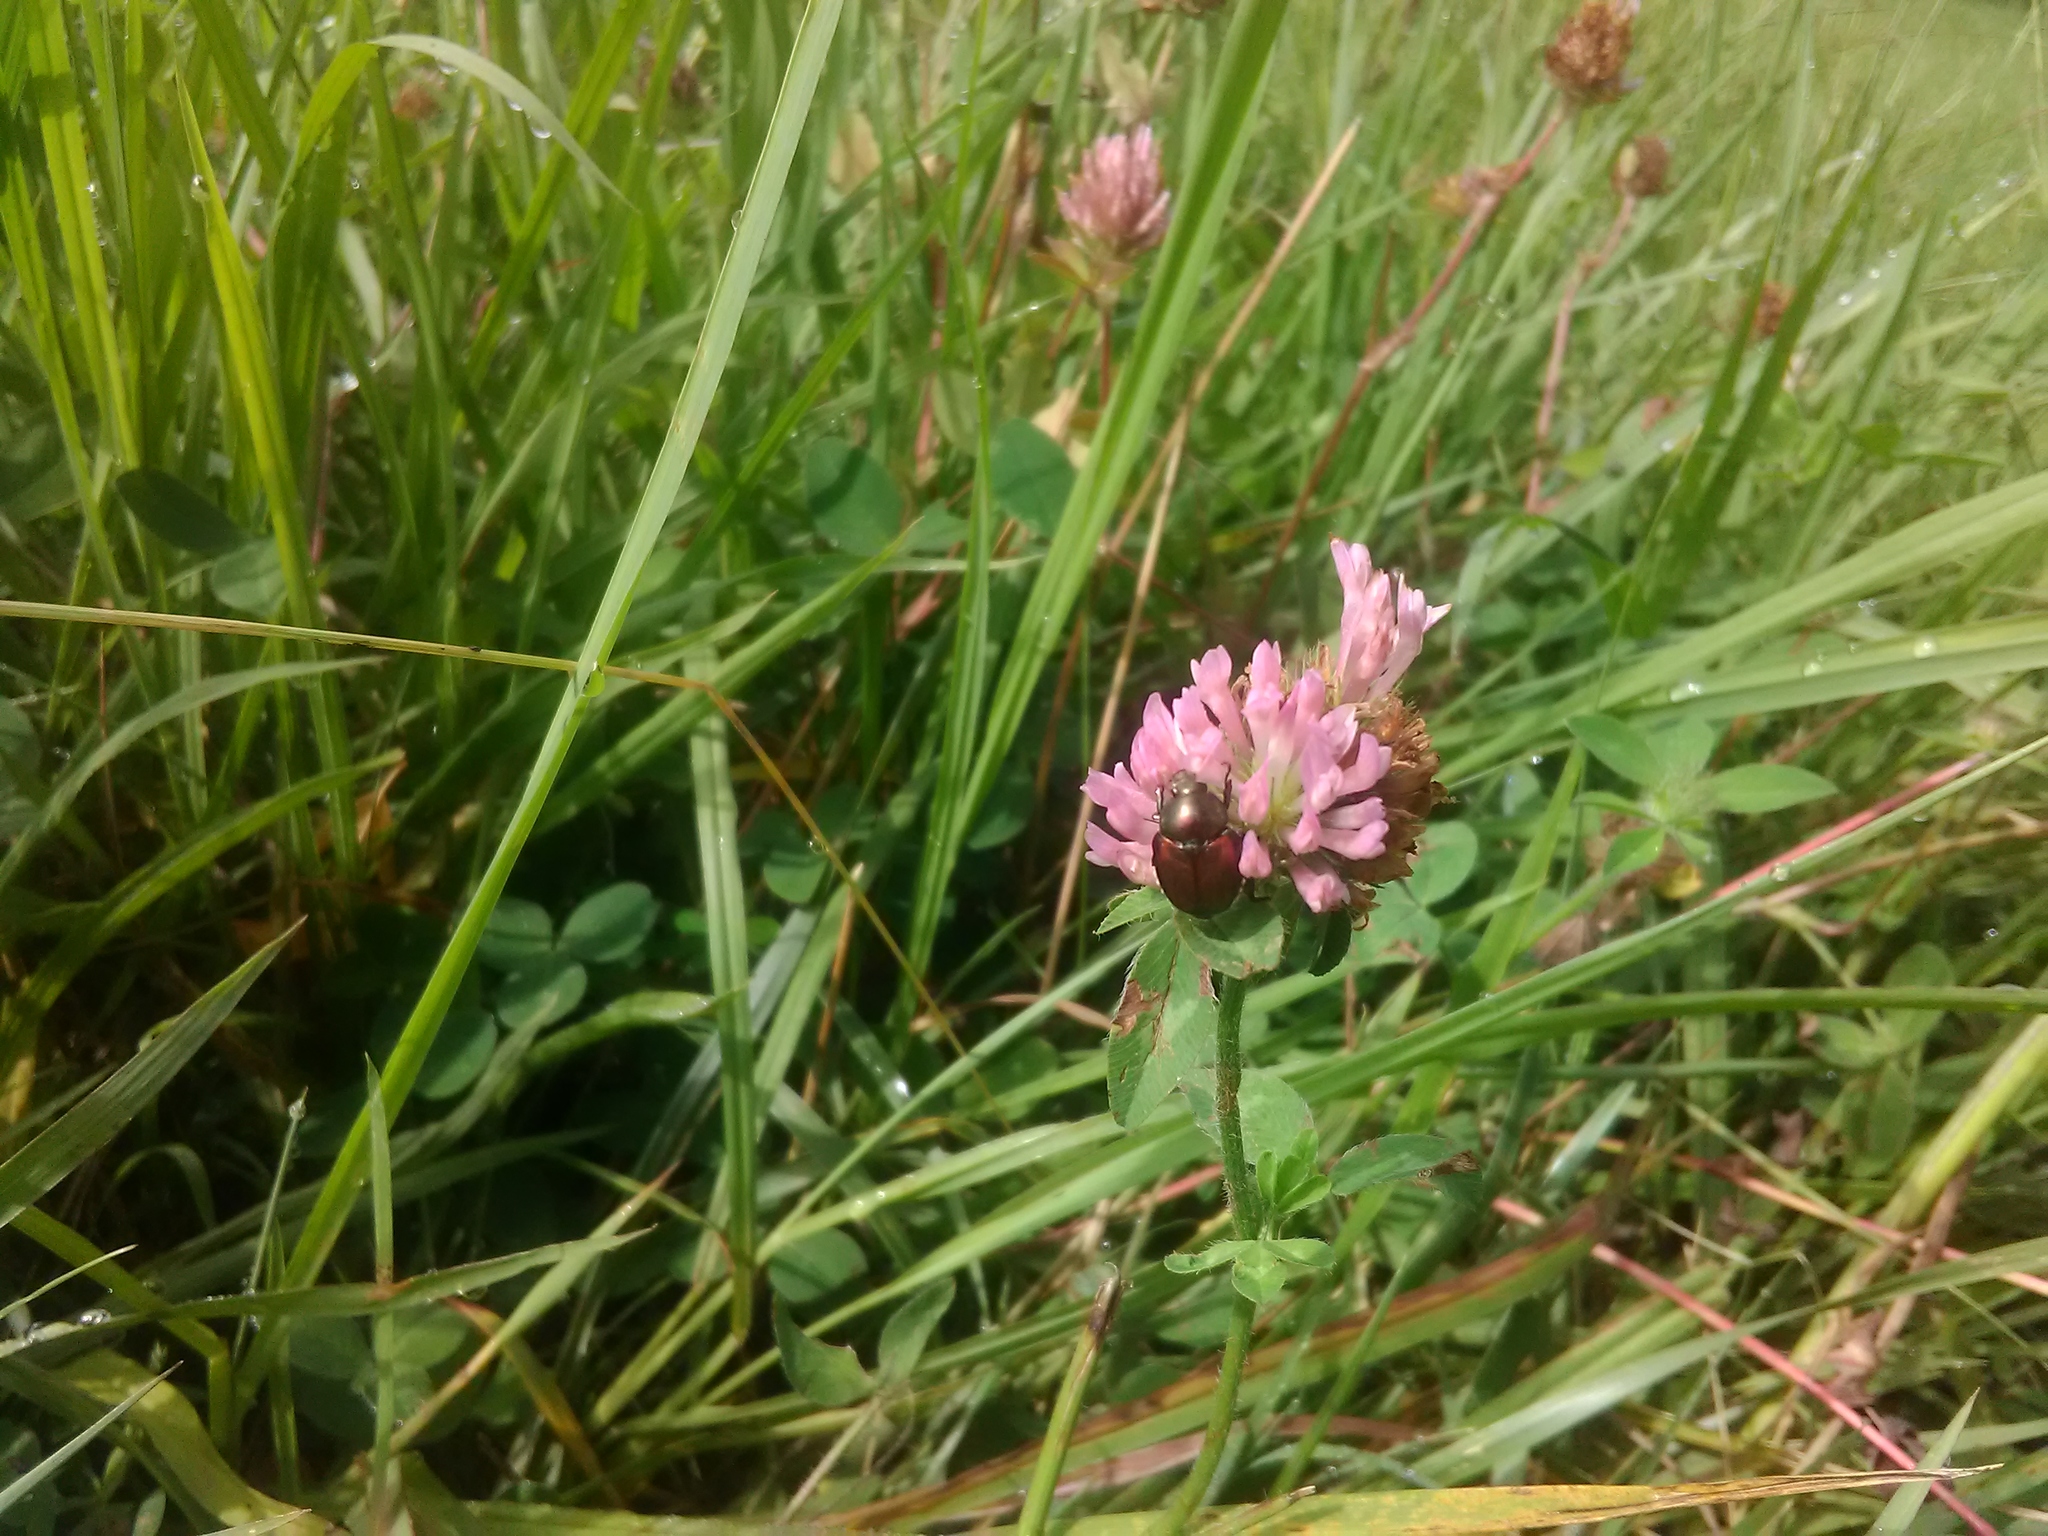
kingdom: Animalia
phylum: Arthropoda
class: Insecta
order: Coleoptera
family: Scarabaeidae
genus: Popillia
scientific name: Popillia japonica
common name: Japanese beetle
